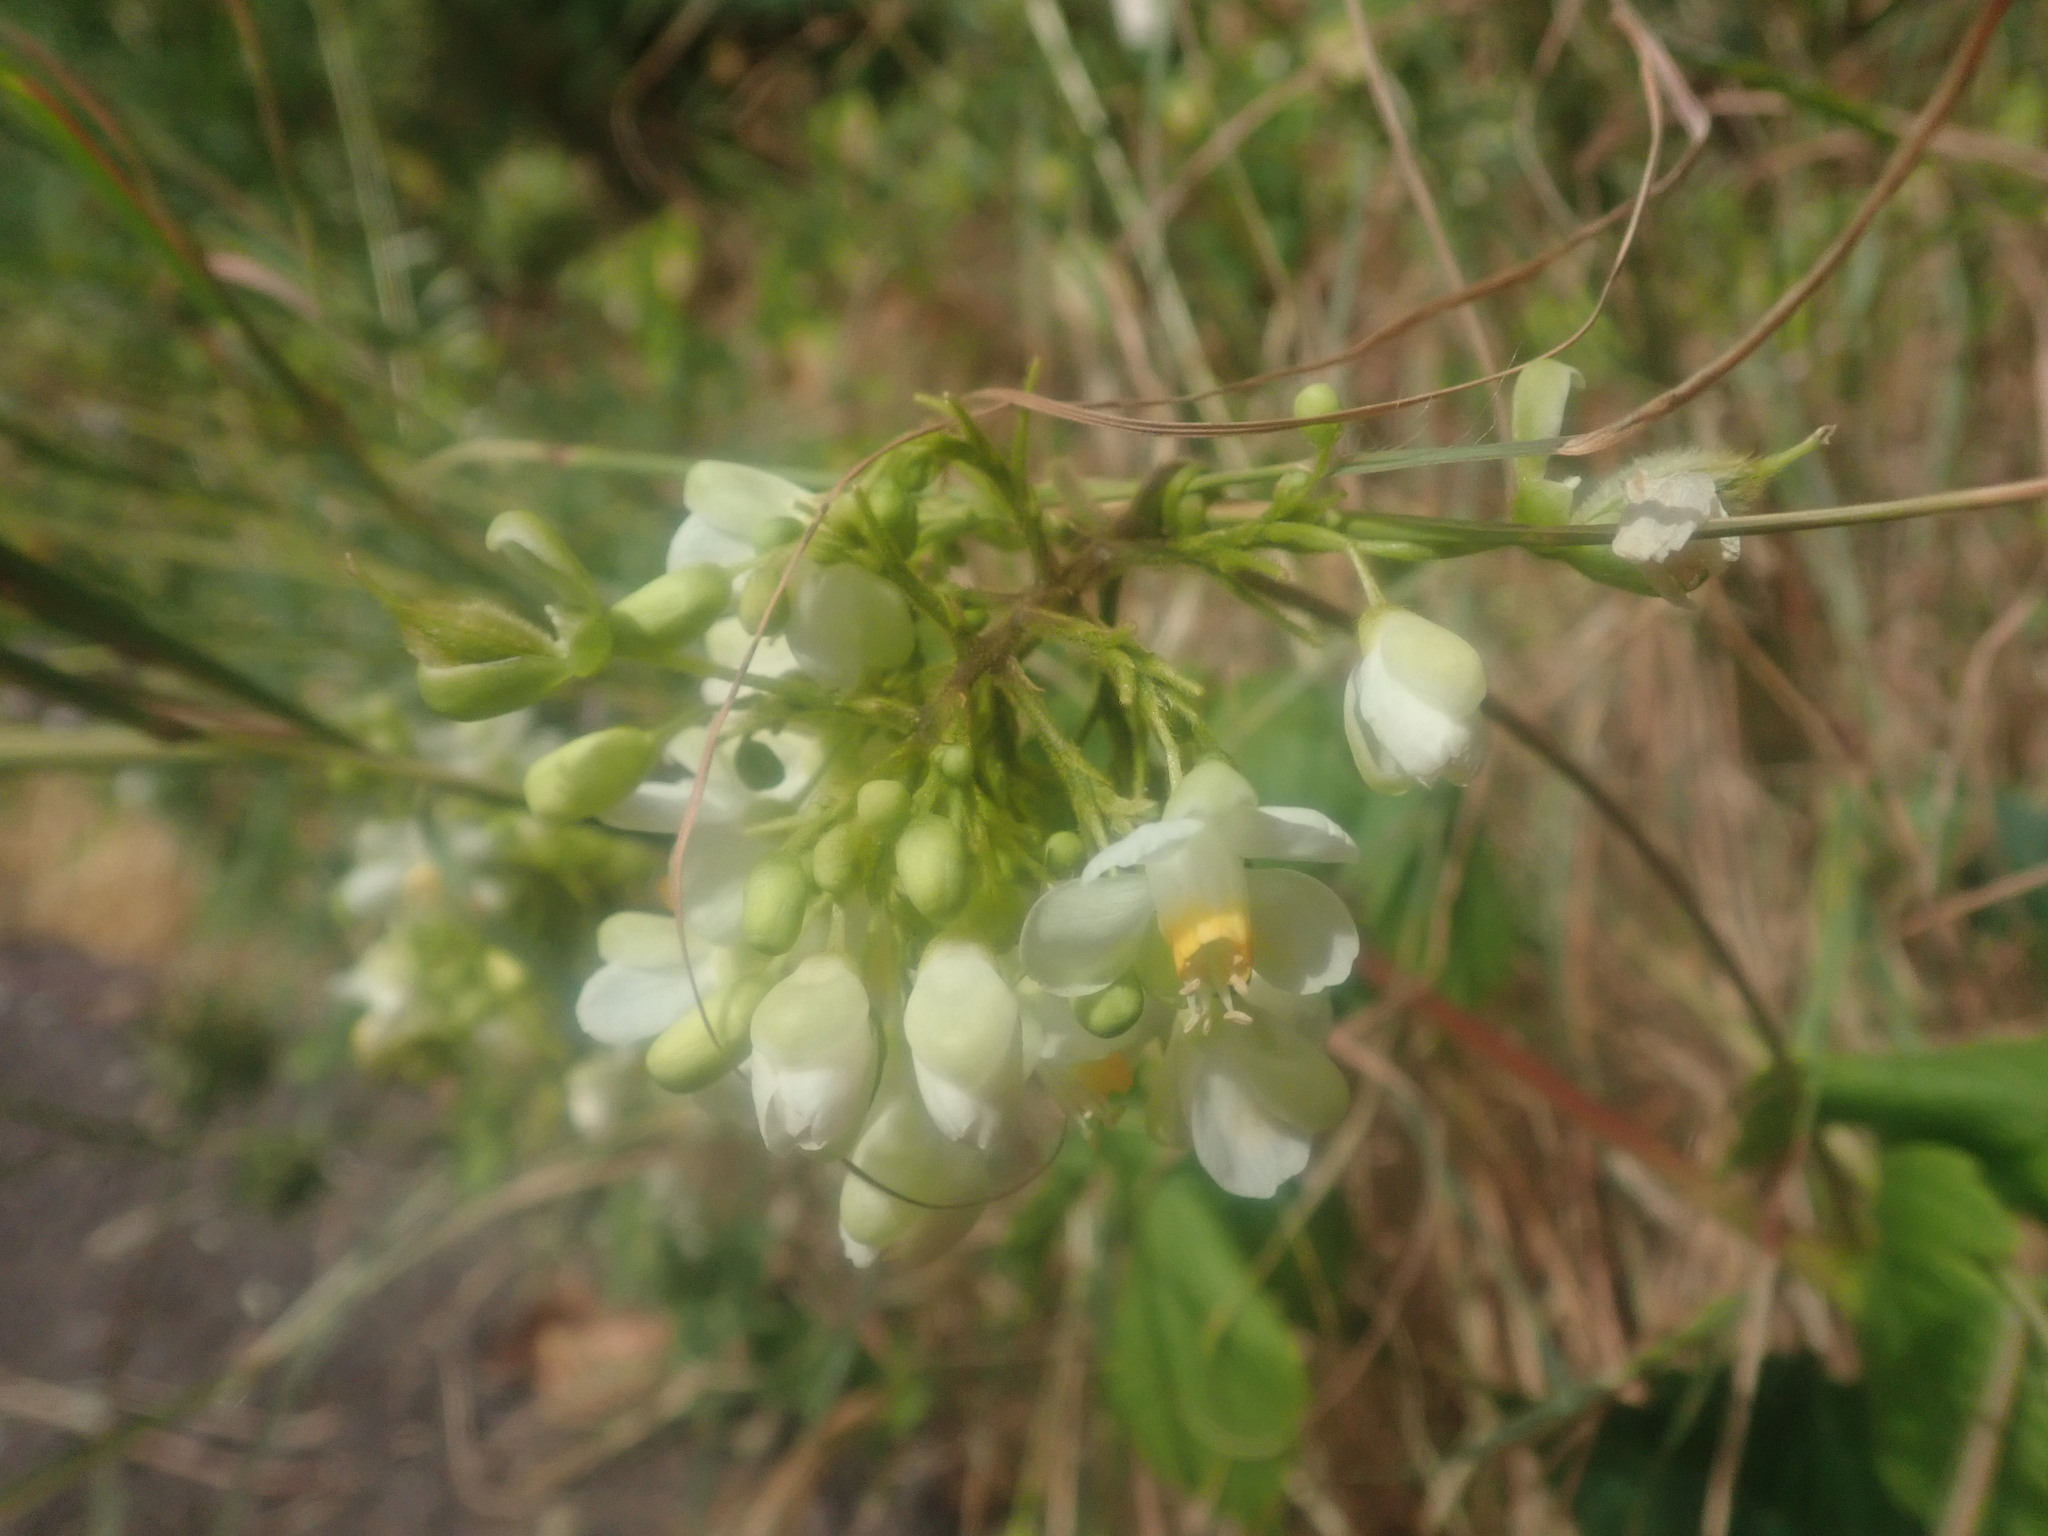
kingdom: Plantae
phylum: Tracheophyta
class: Magnoliopsida
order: Sapindales
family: Sapindaceae
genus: Cardiospermum
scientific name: Cardiospermum grandiflorum
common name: Balloon vine
